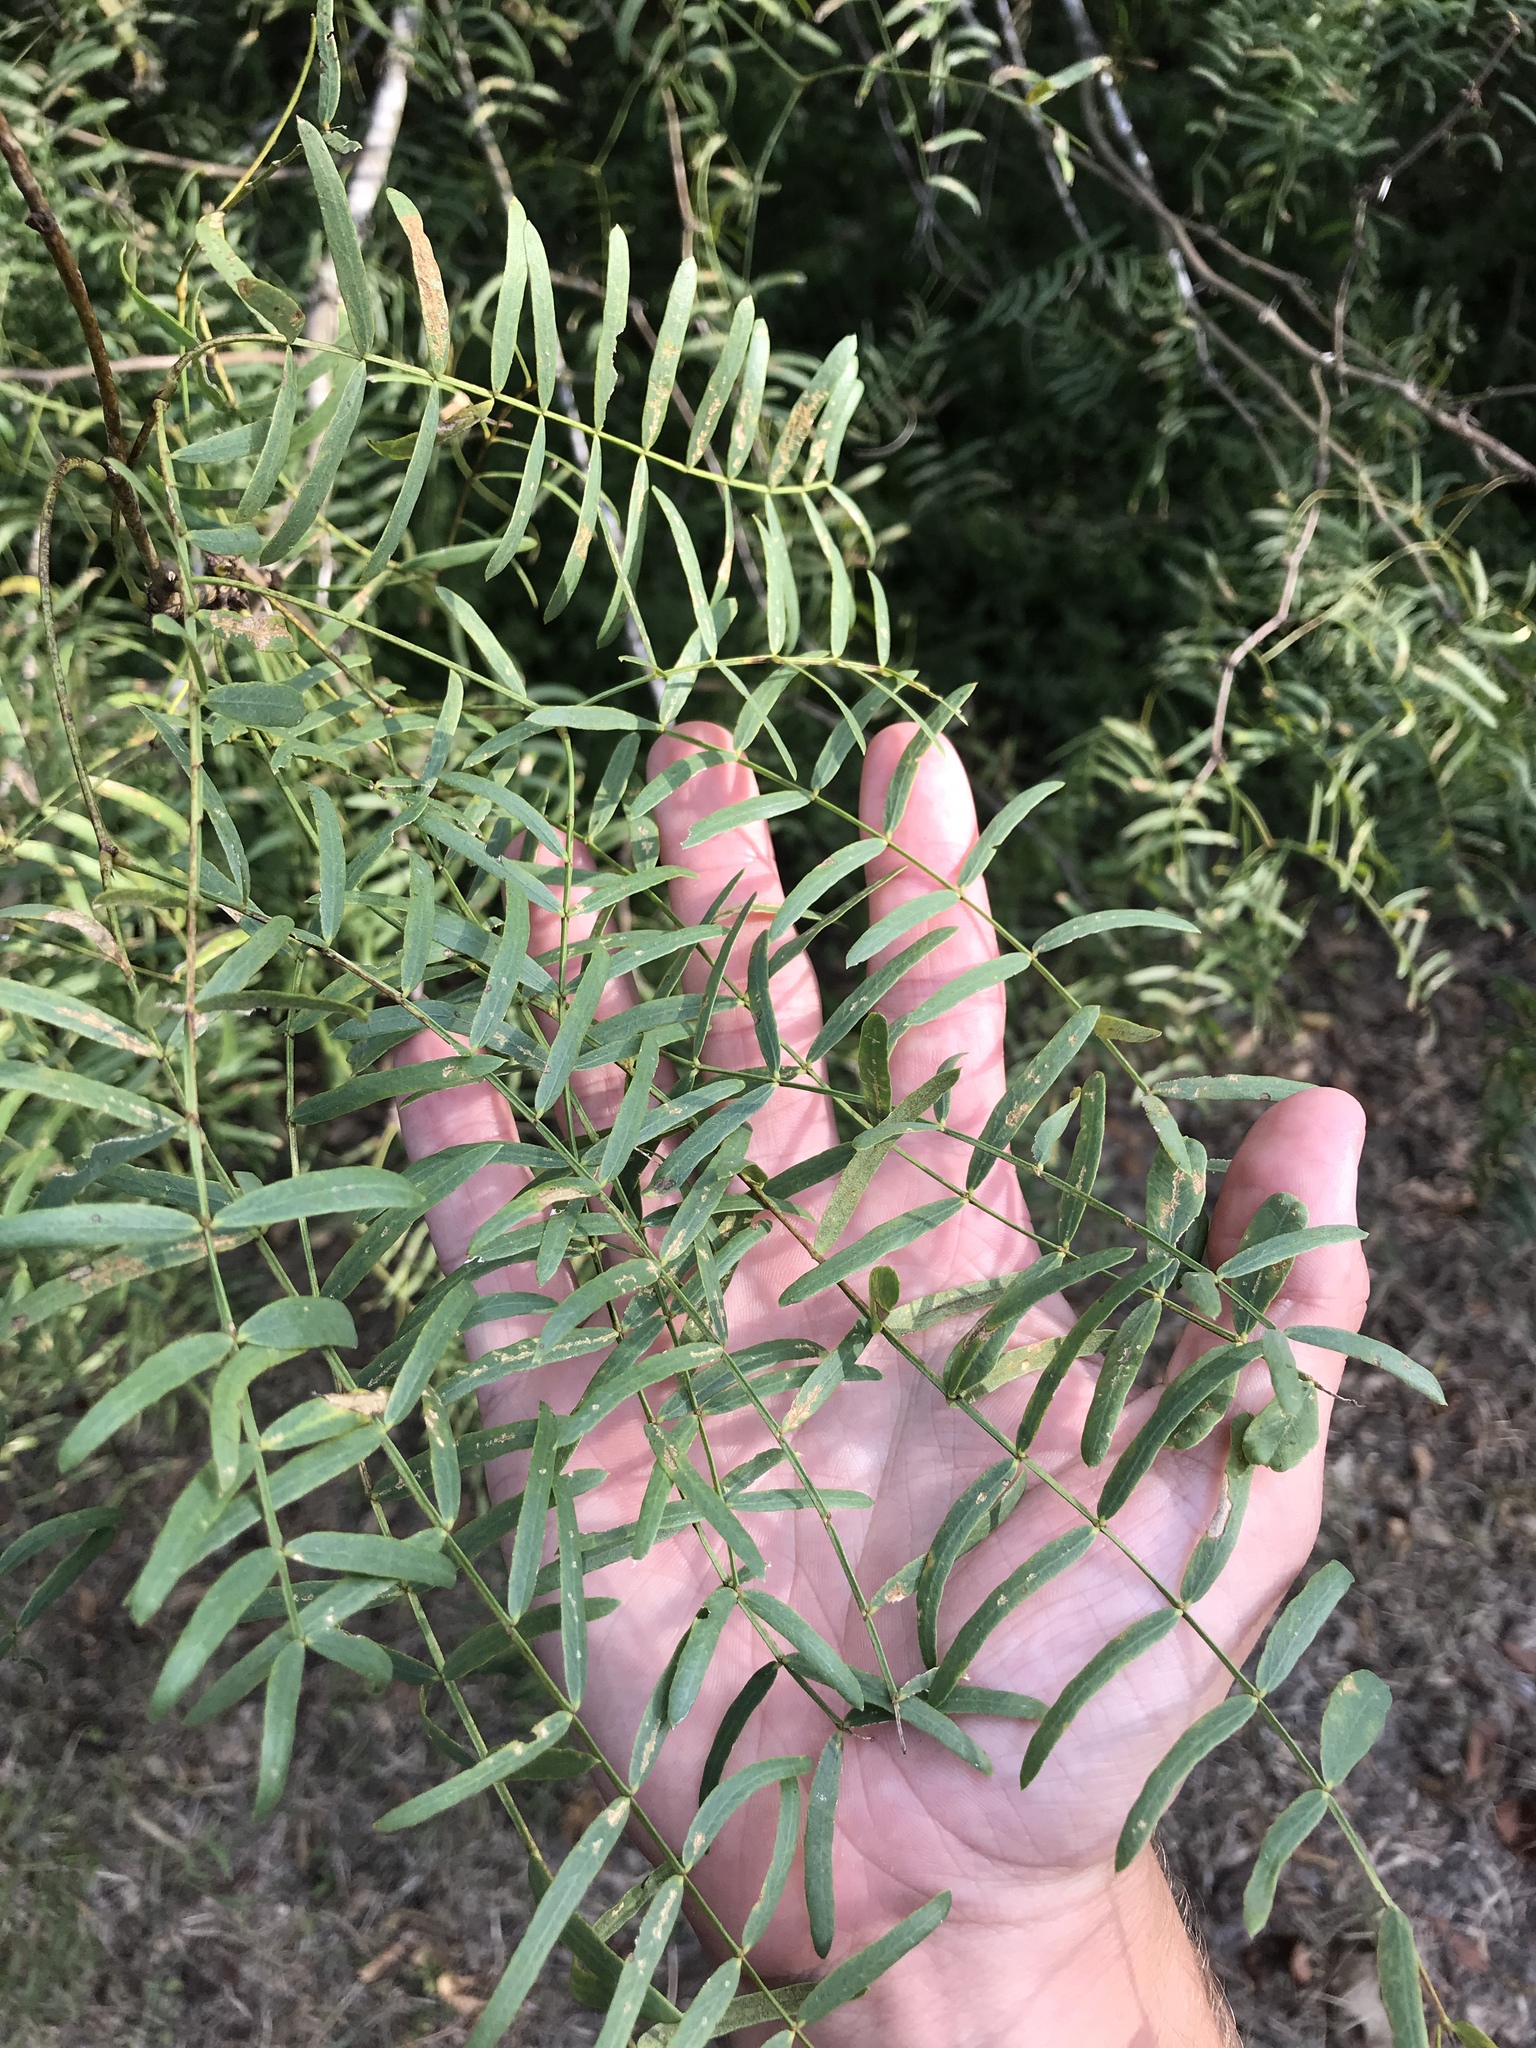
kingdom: Plantae
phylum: Tracheophyta
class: Magnoliopsida
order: Fabales
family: Fabaceae
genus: Prosopis
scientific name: Prosopis glandulosa
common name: Honey mesquite
